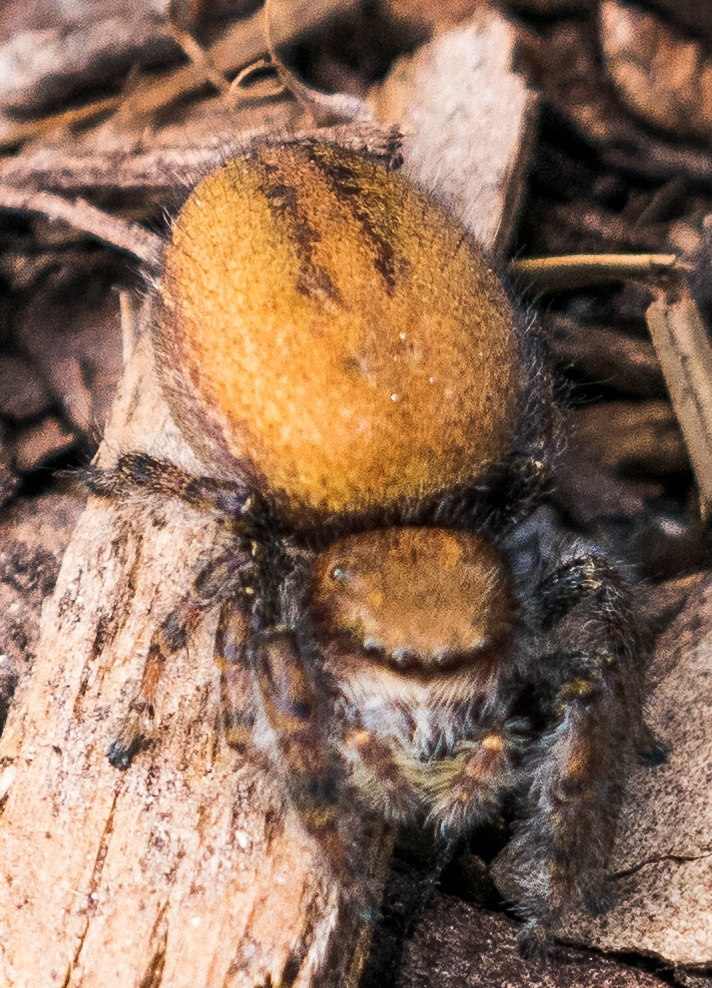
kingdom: Animalia
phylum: Arthropoda
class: Arachnida
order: Araneae
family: Salticidae
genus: Phidippus
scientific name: Phidippus cardinalis
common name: Cardinal jumper
